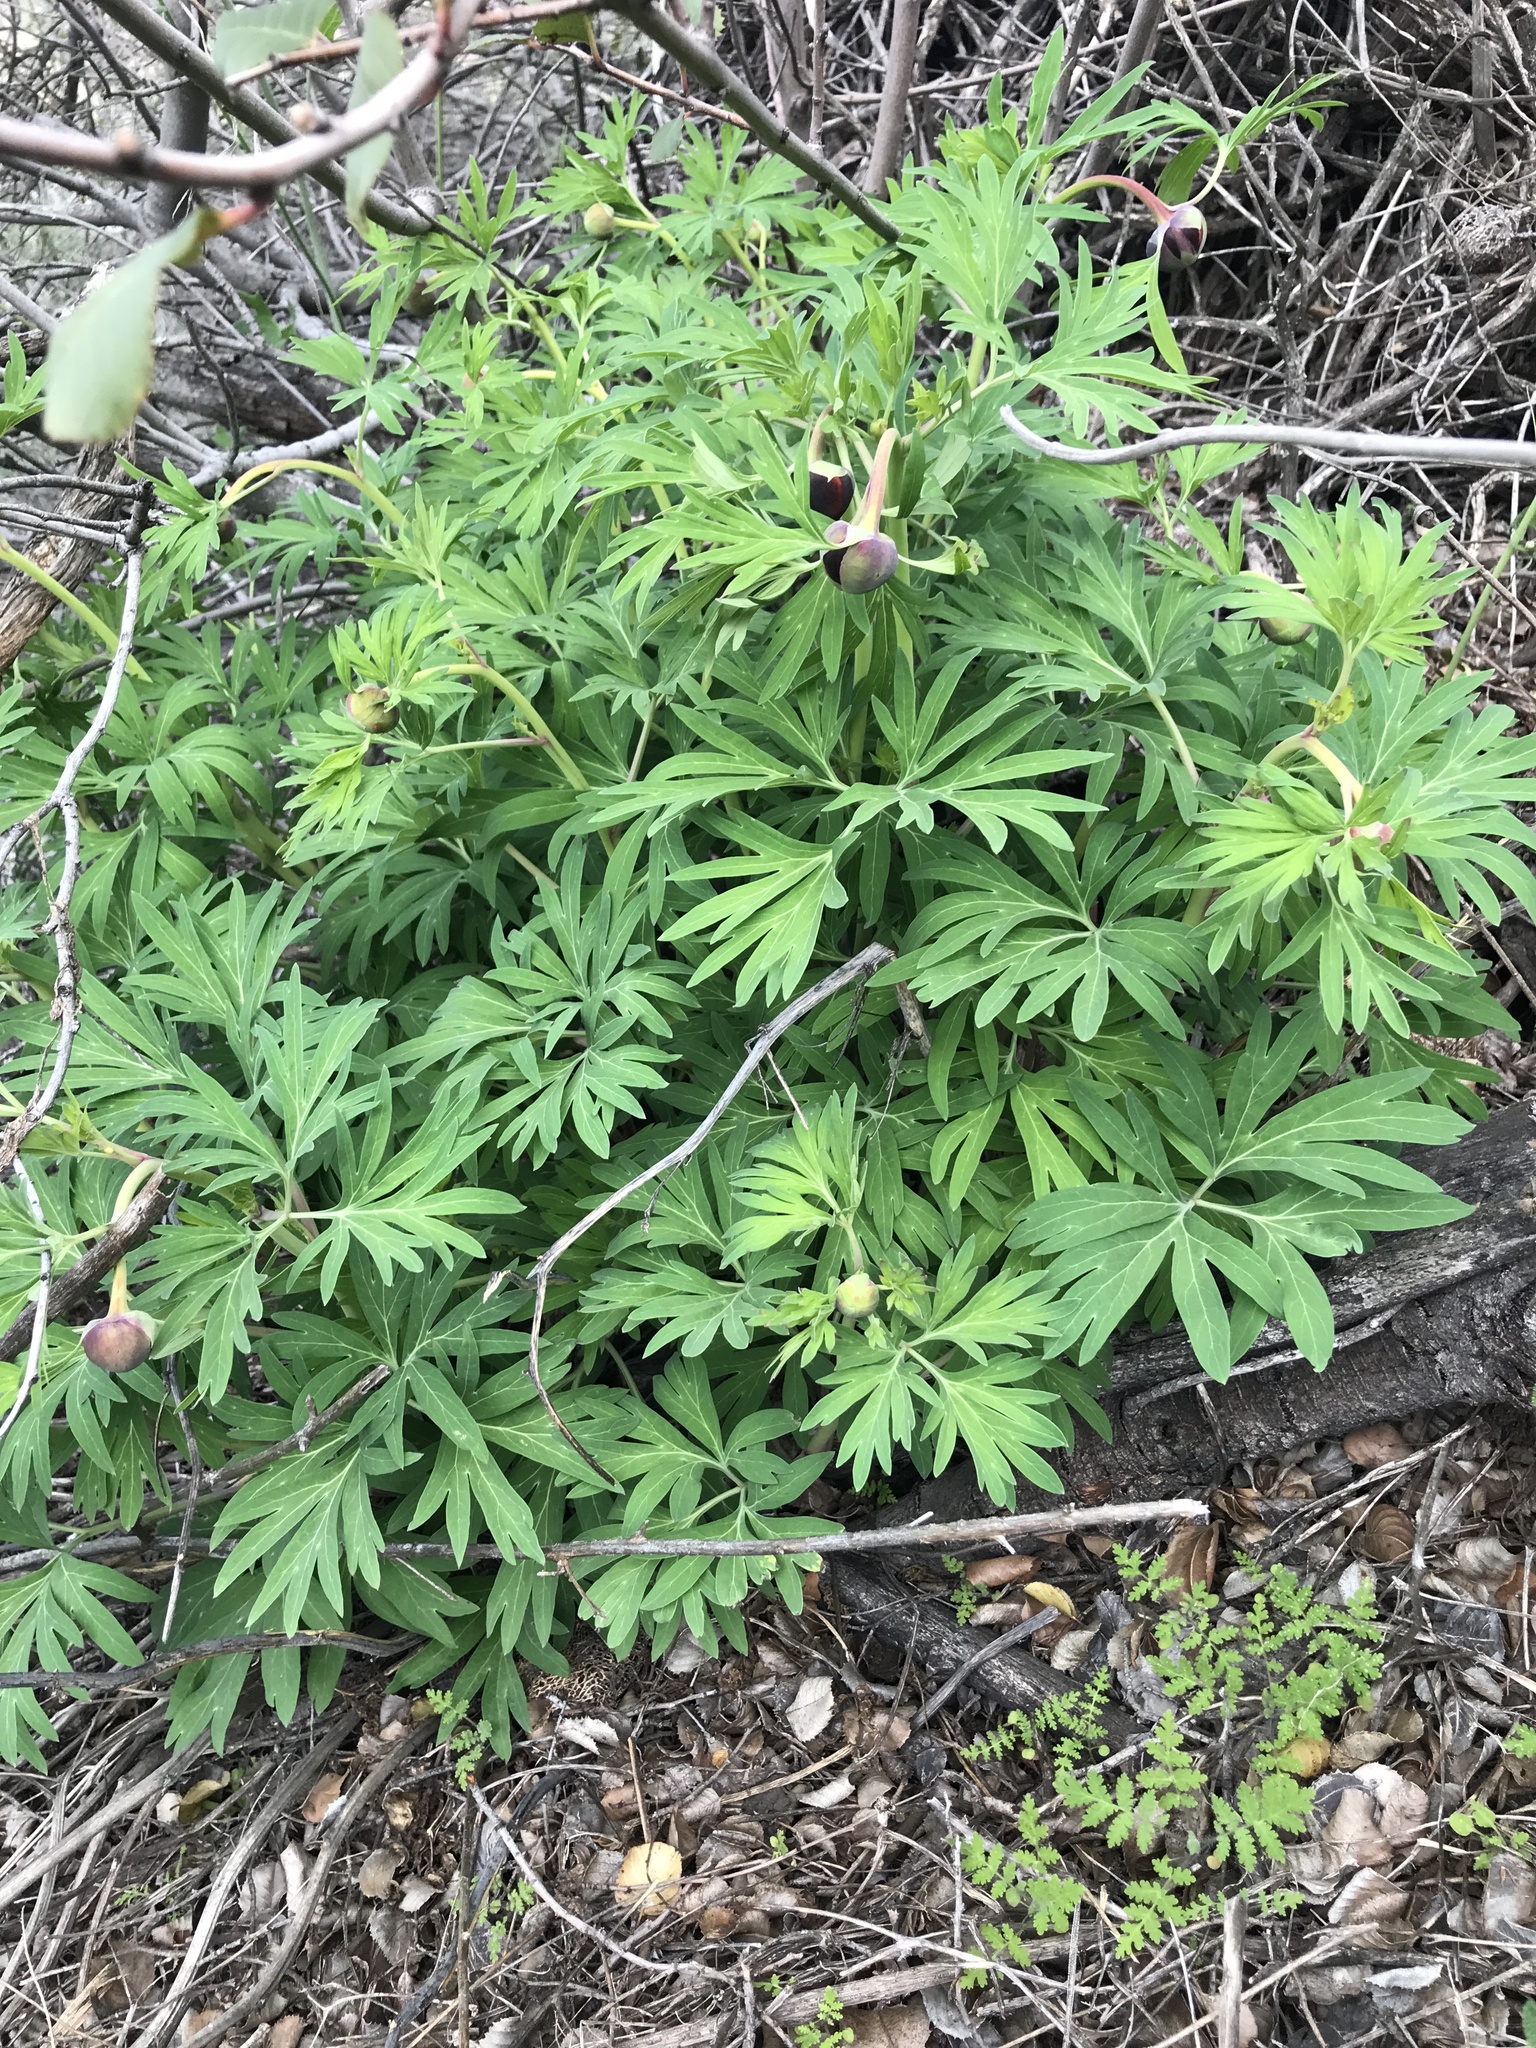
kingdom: Plantae
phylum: Tracheophyta
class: Magnoliopsida
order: Saxifragales
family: Paeoniaceae
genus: Paeonia
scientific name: Paeonia californica
